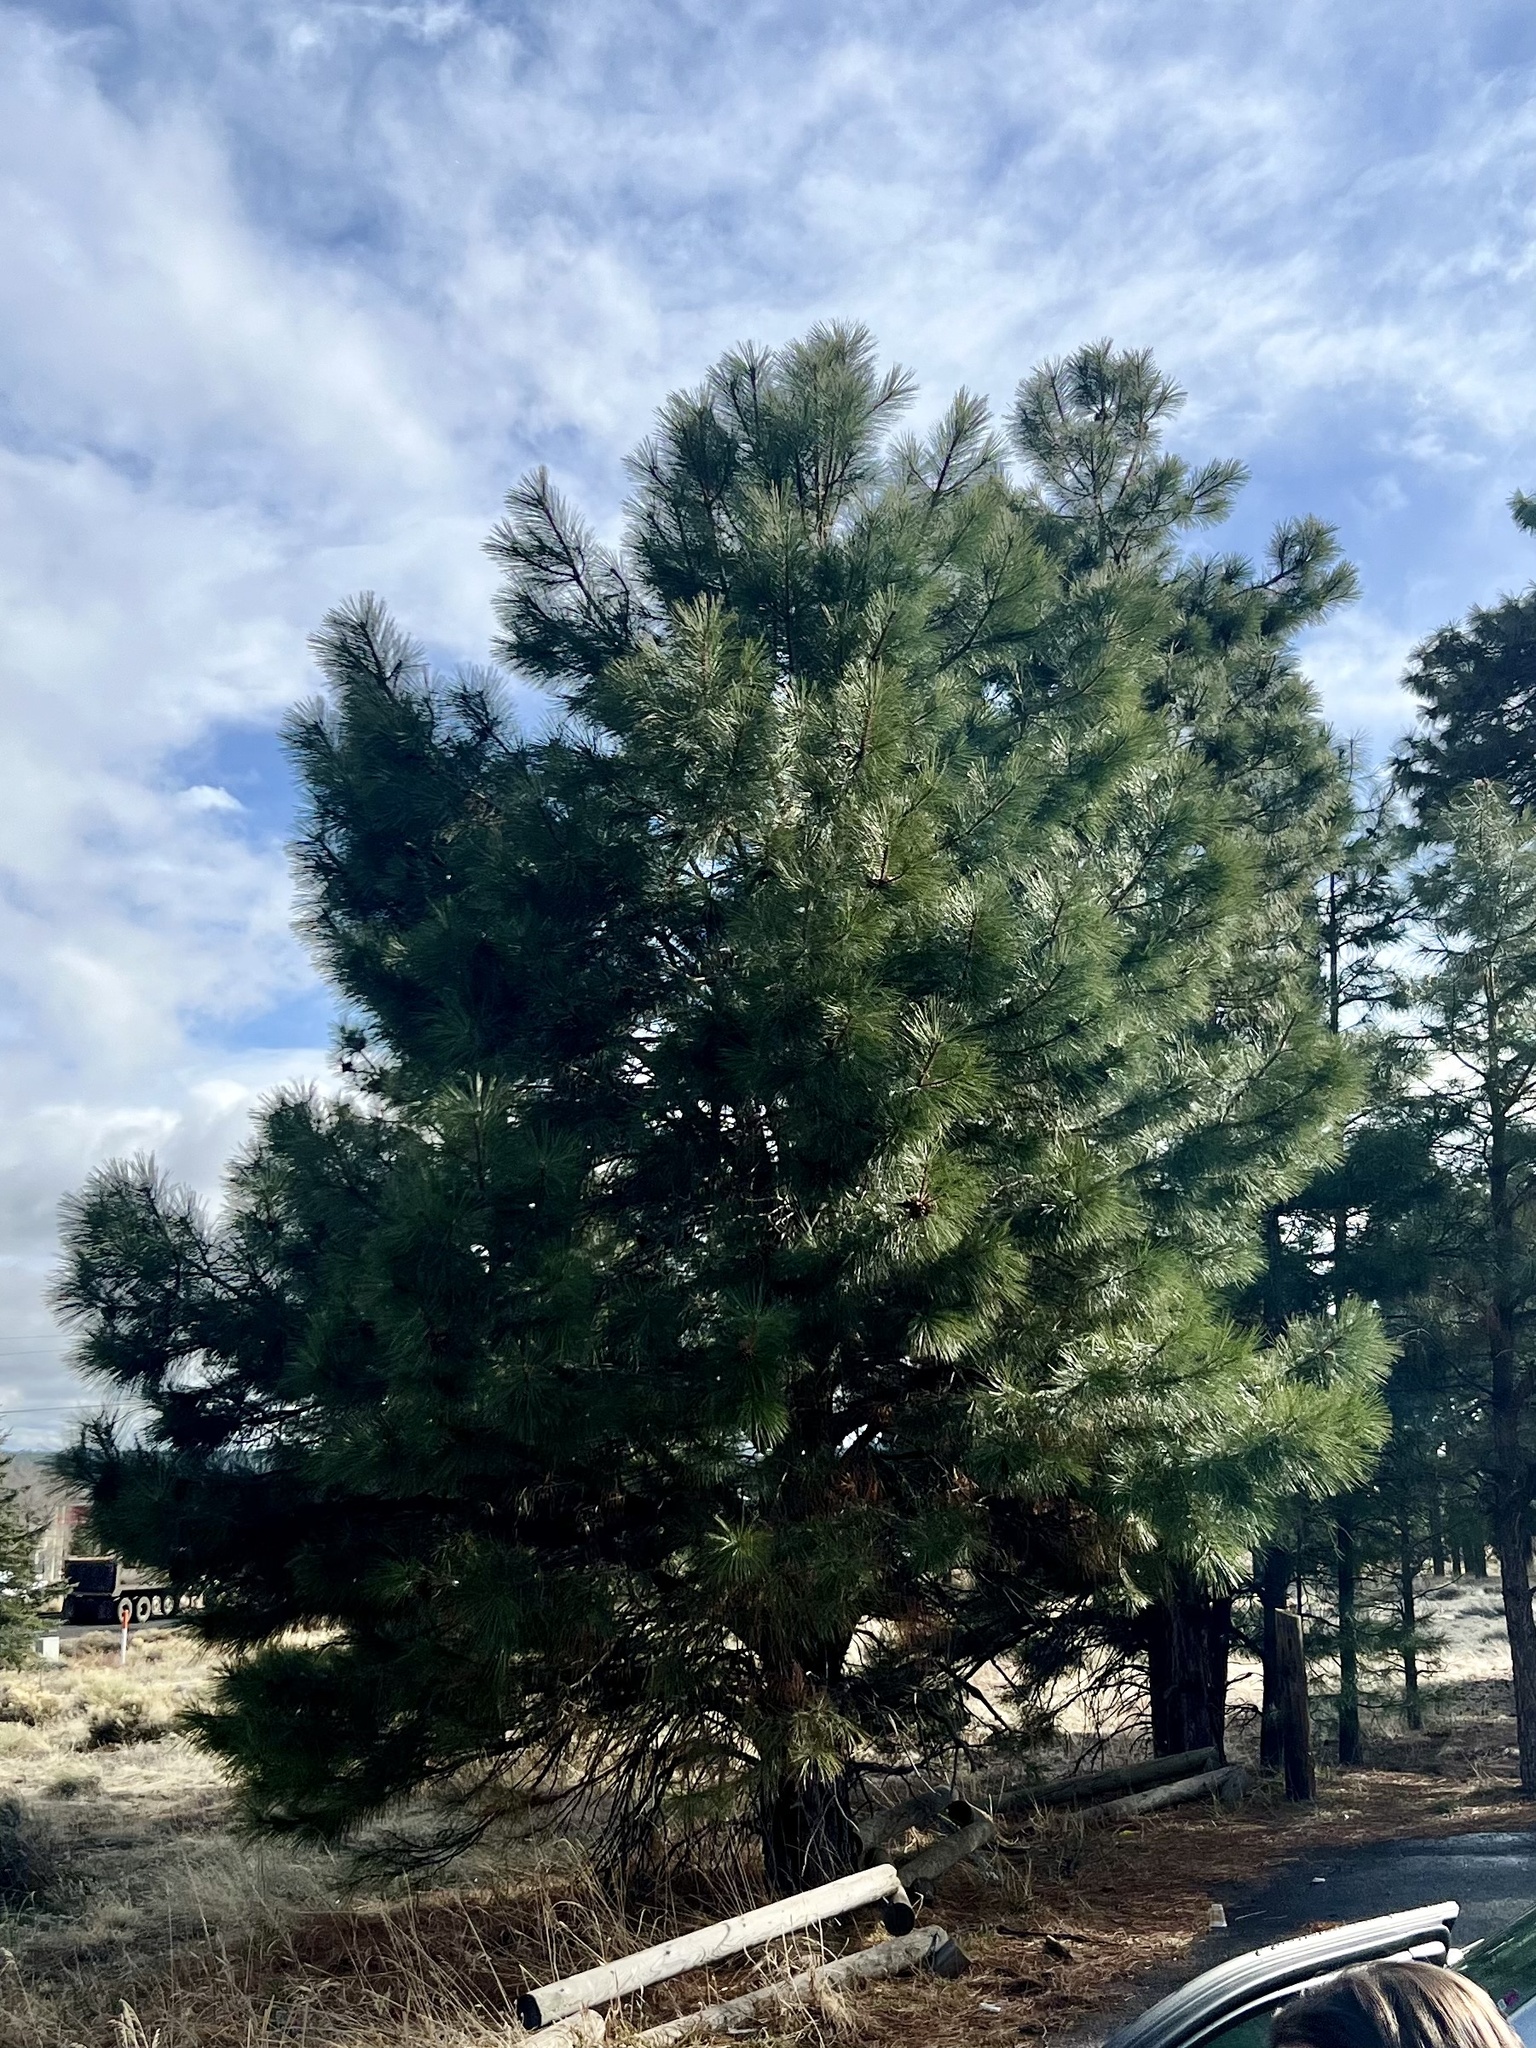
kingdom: Plantae
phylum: Tracheophyta
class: Pinopsida
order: Pinales
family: Pinaceae
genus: Pinus
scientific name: Pinus ponderosa
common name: Western yellow-pine
